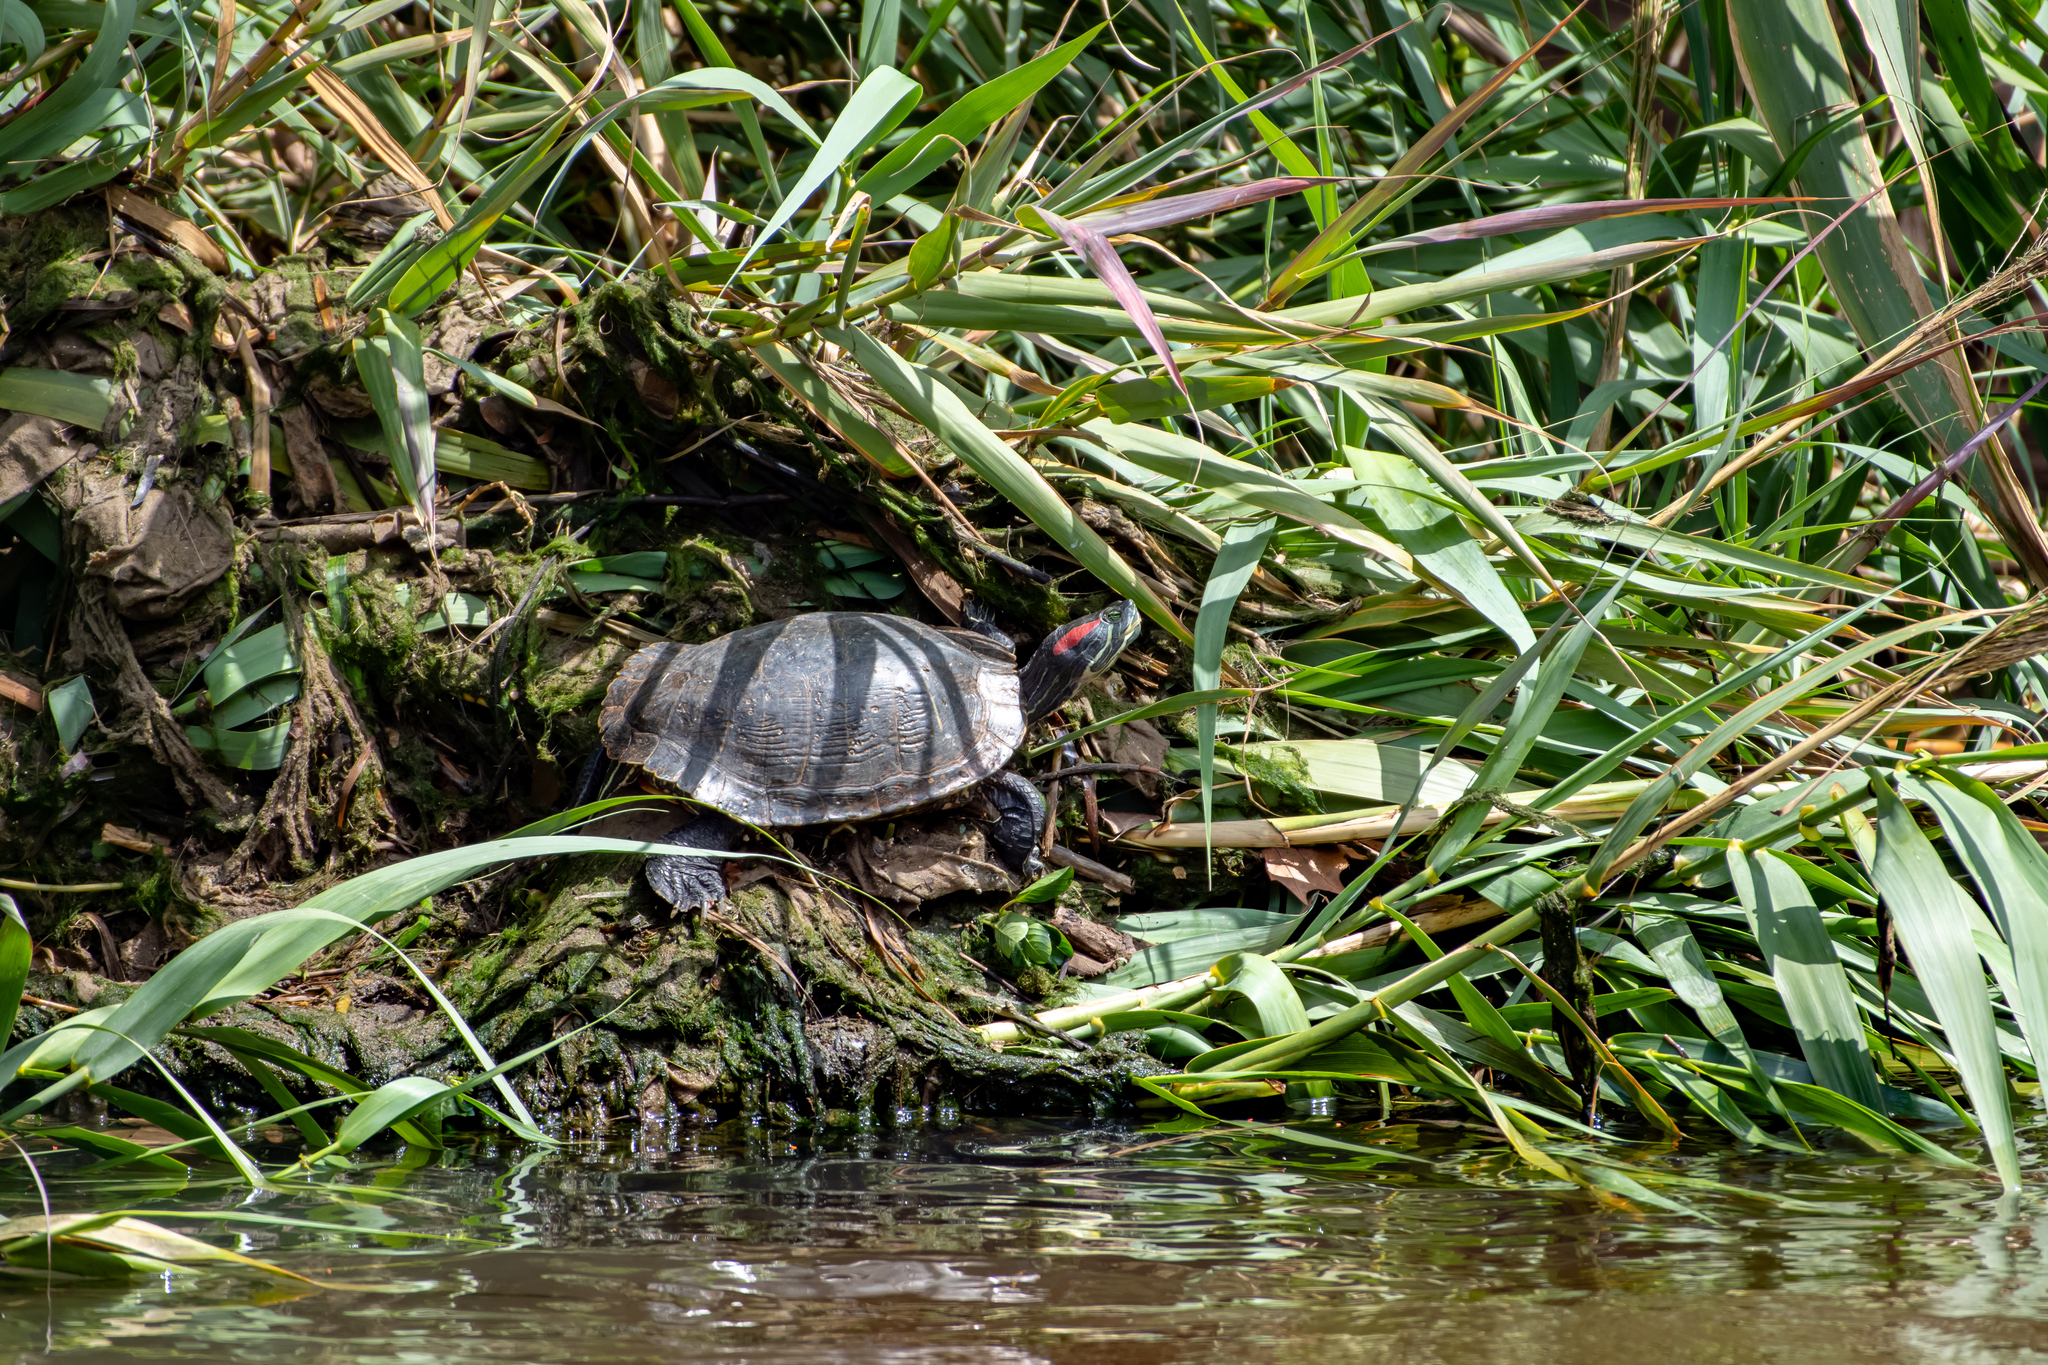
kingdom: Animalia
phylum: Chordata
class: Testudines
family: Emydidae
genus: Trachemys
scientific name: Trachemys scripta
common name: Slider
